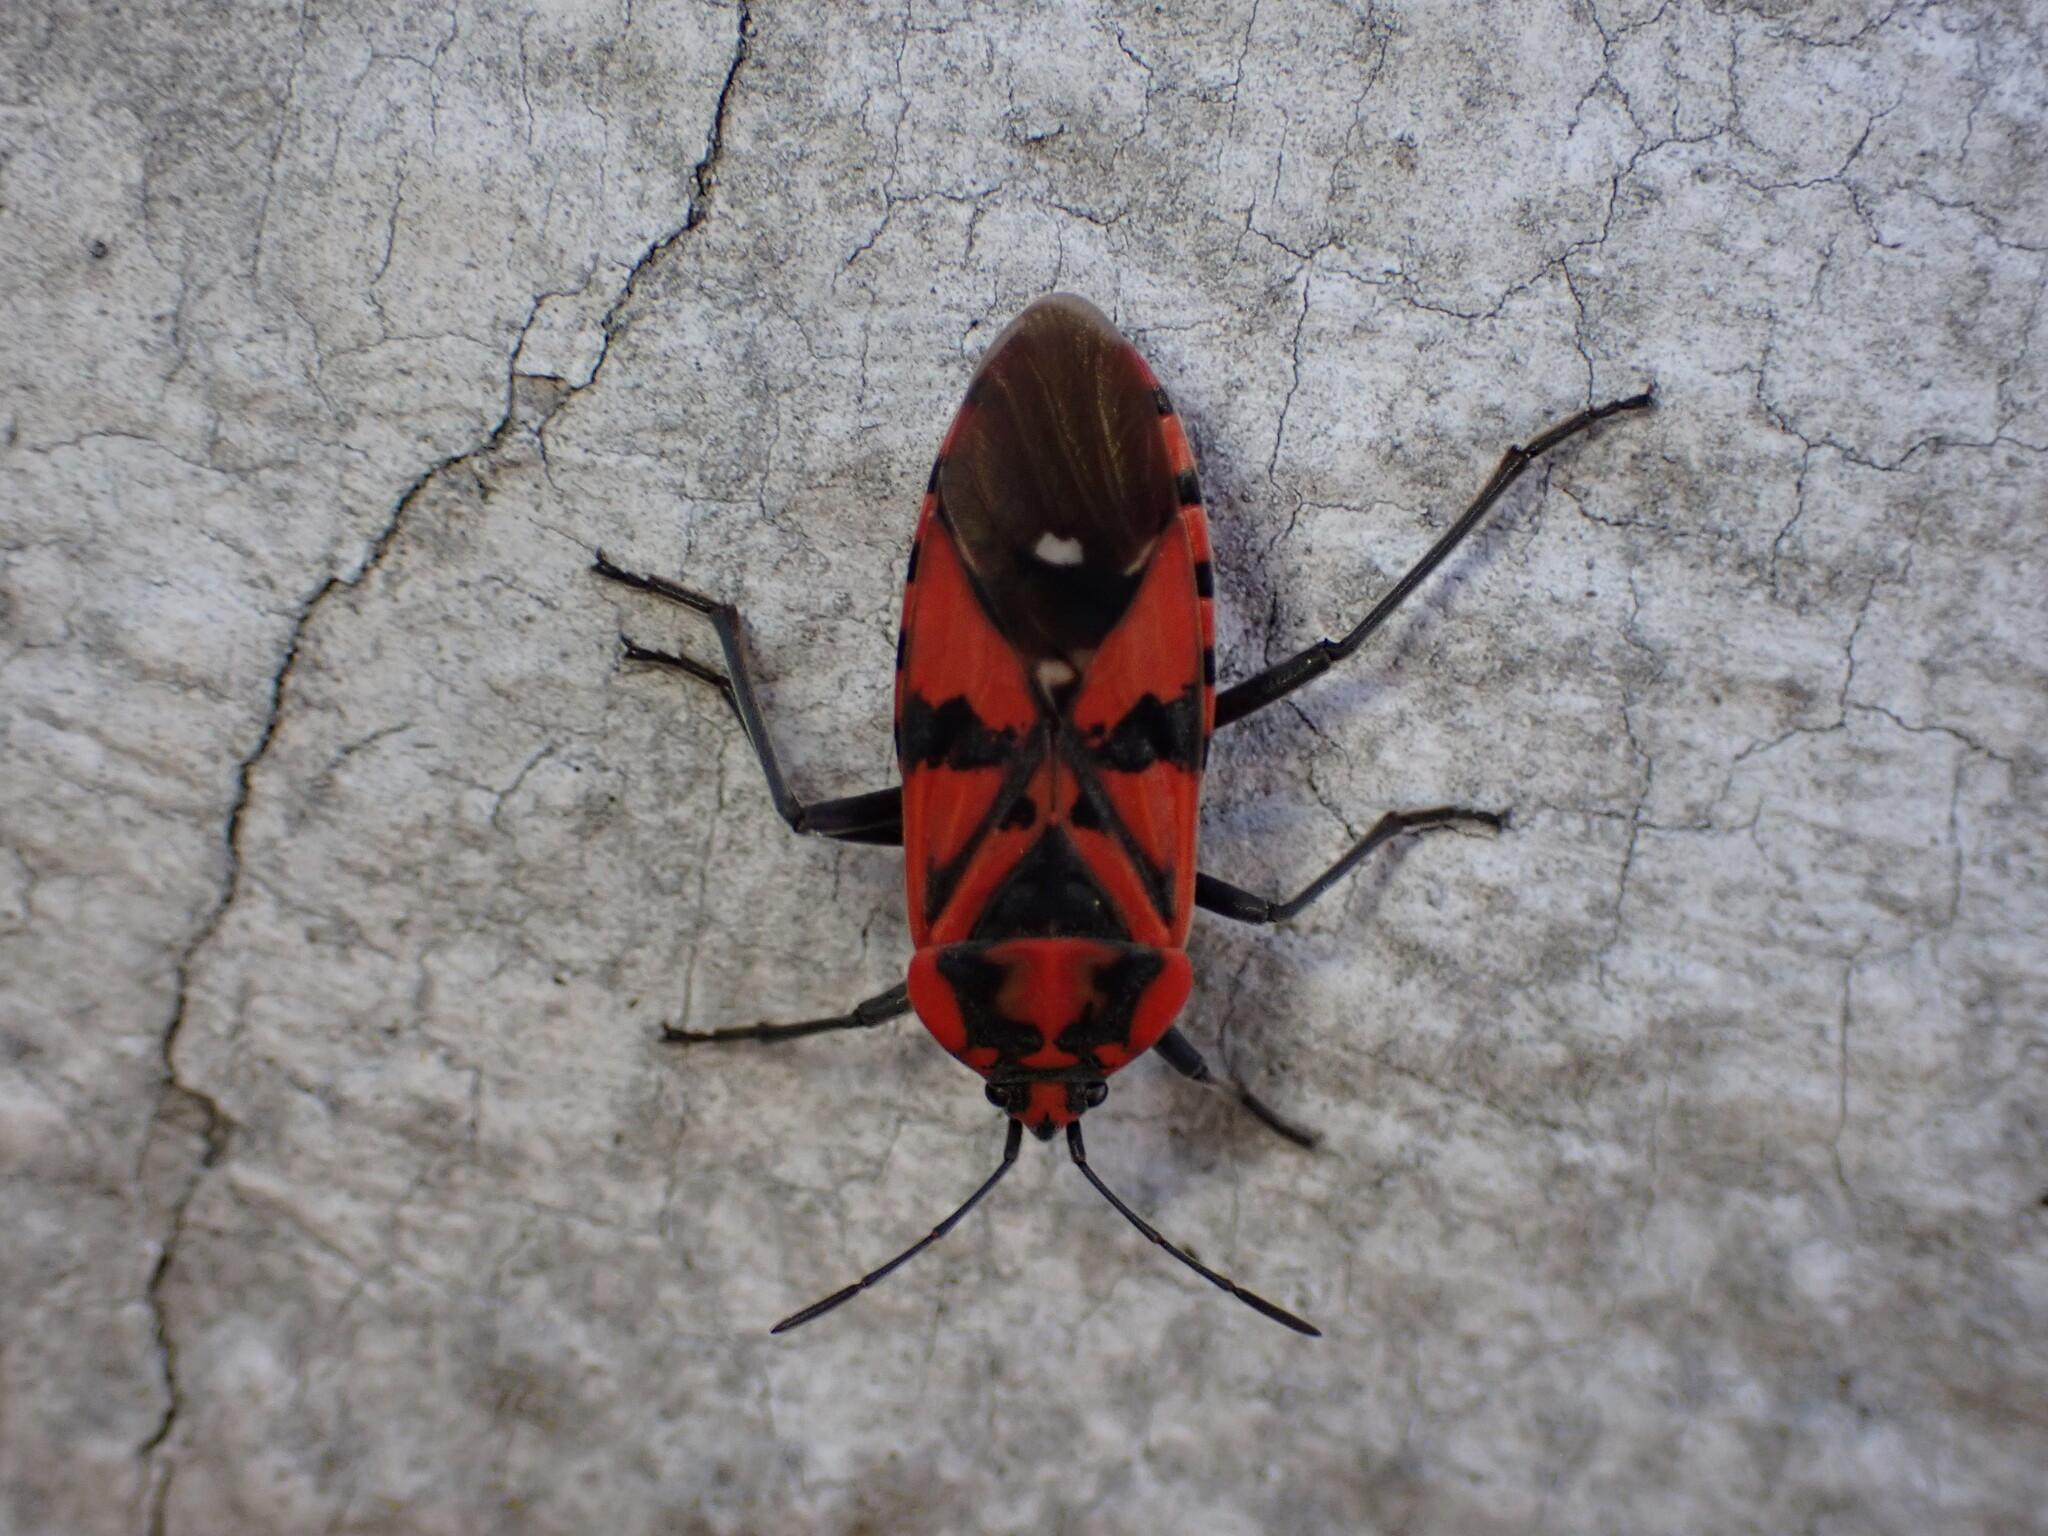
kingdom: Animalia
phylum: Arthropoda
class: Insecta
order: Hemiptera
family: Lygaeidae
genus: Spilostethus
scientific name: Spilostethus pandurus
